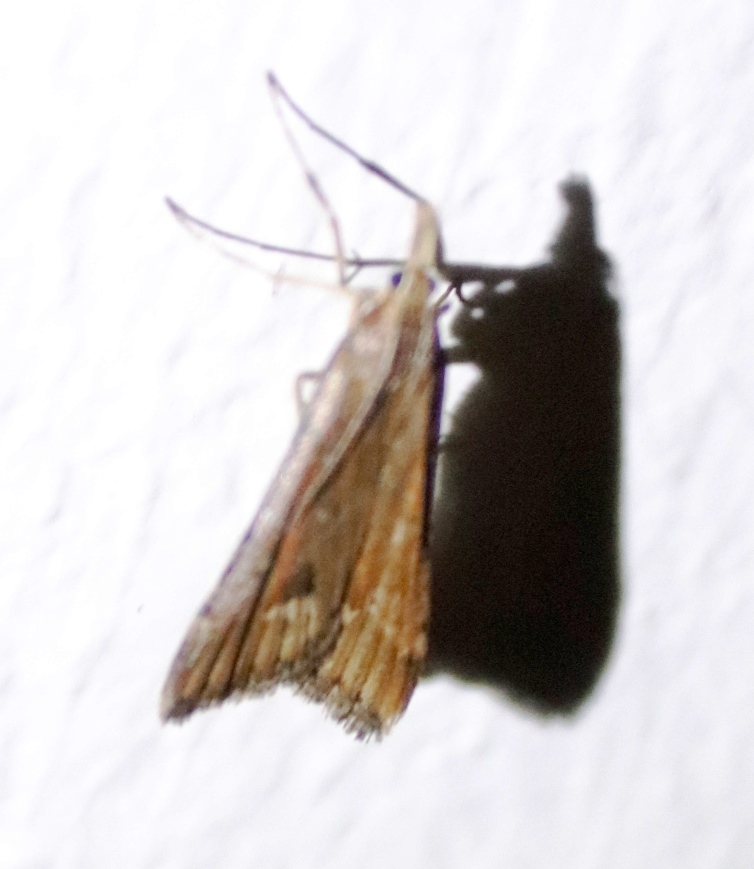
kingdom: Animalia
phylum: Arthropoda
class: Insecta
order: Lepidoptera
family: Crambidae
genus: Diasemia
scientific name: Diasemia monostigma
